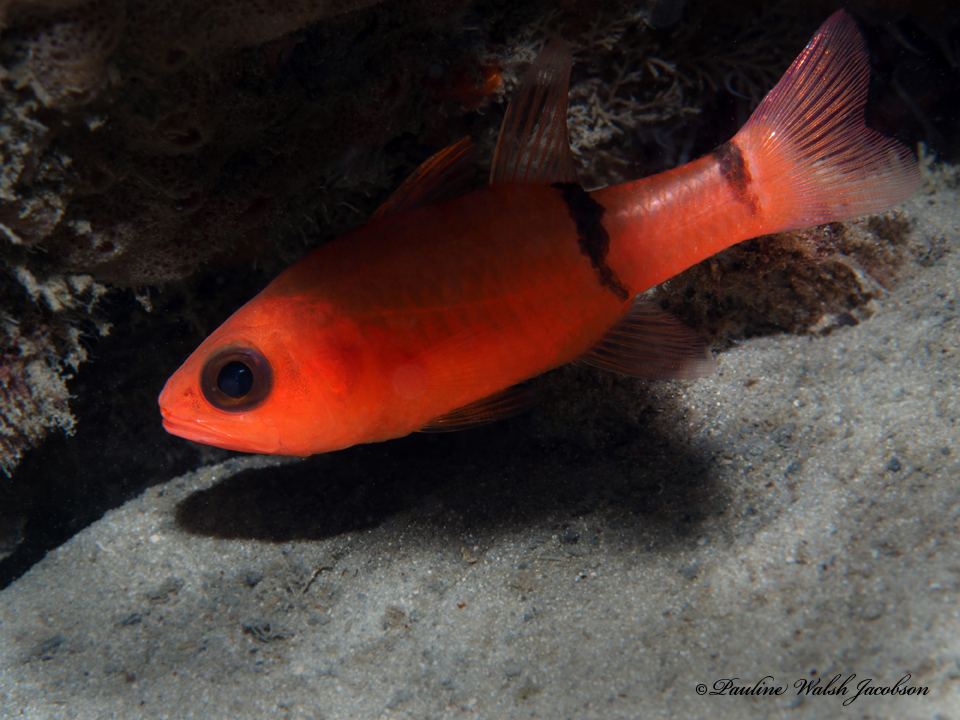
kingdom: Animalia
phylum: Chordata
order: Perciformes
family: Apogonidae
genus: Apogon
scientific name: Apogon binotatus
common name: Barred cardinalfish
